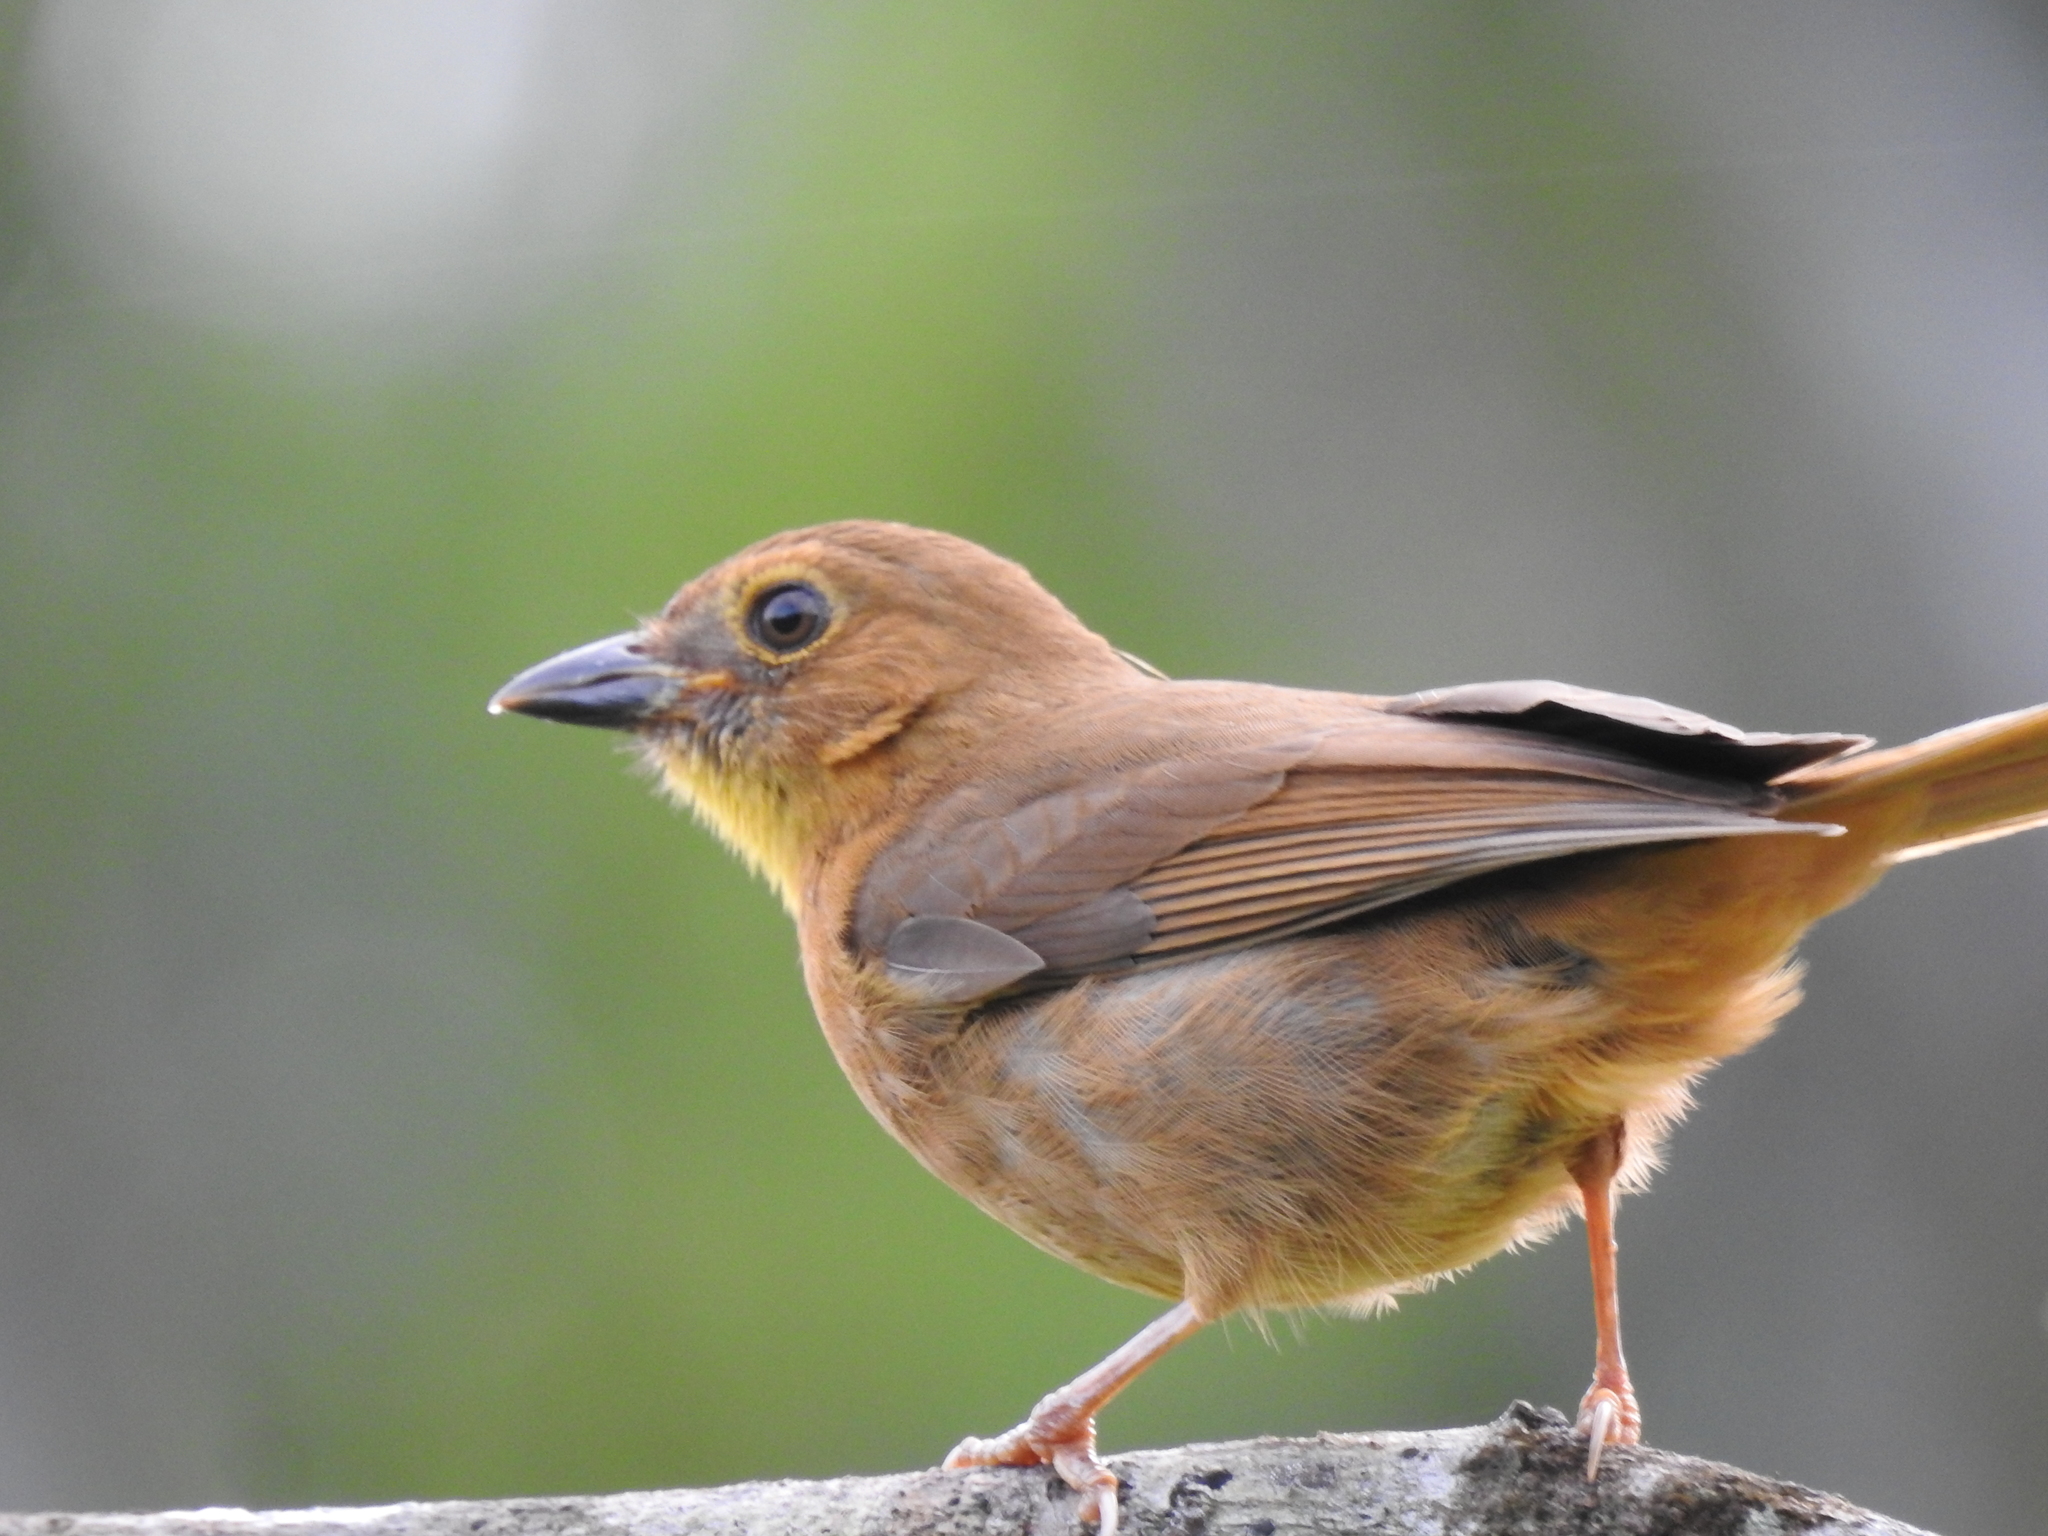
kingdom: Animalia
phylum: Chordata
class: Aves
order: Passeriformes
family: Cardinalidae
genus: Habia
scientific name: Habia fuscicauda
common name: Red-throated ant-tanager
